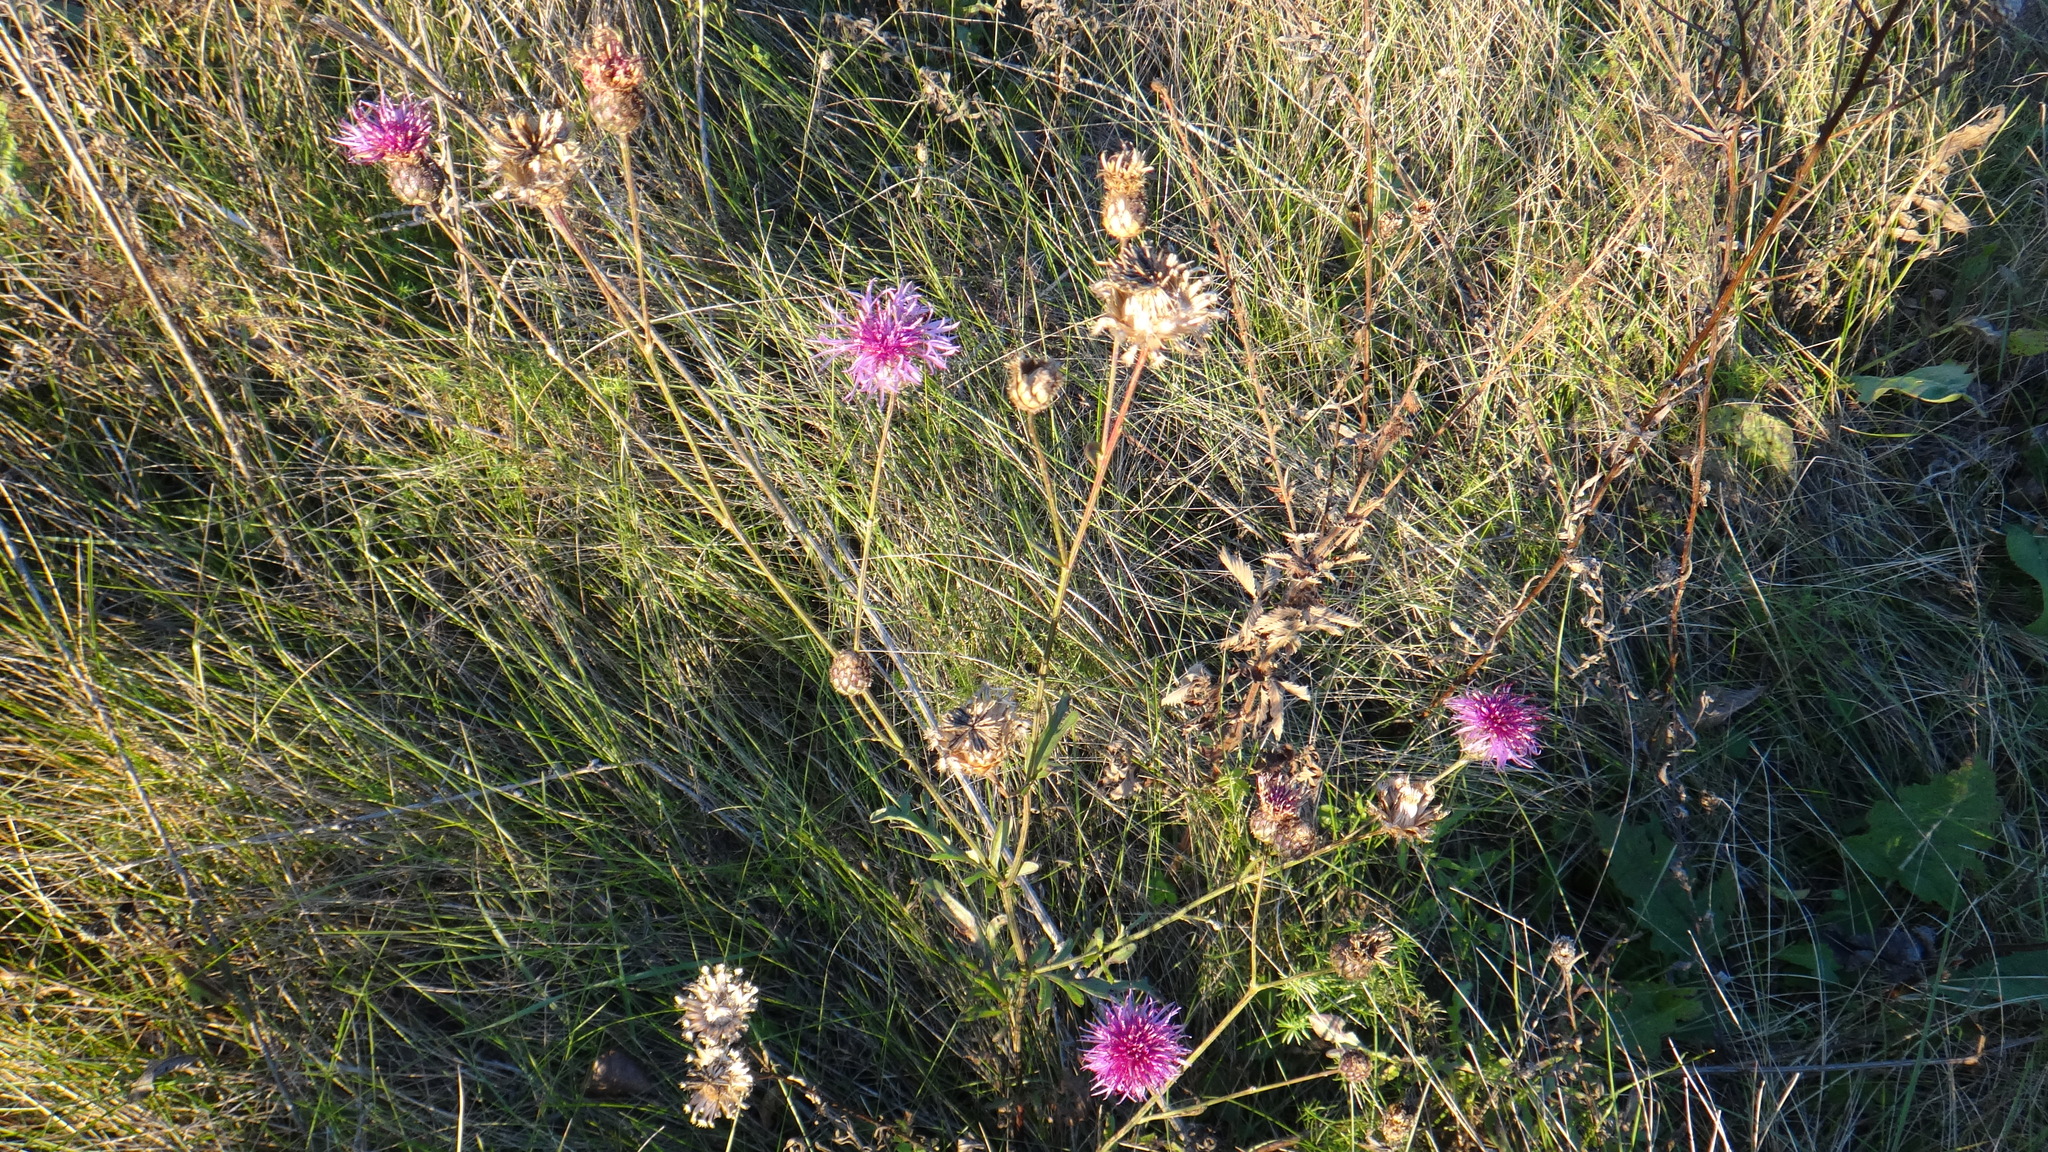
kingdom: Plantae
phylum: Tracheophyta
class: Magnoliopsida
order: Asterales
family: Asteraceae
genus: Centaurea
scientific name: Centaurea apiculata
